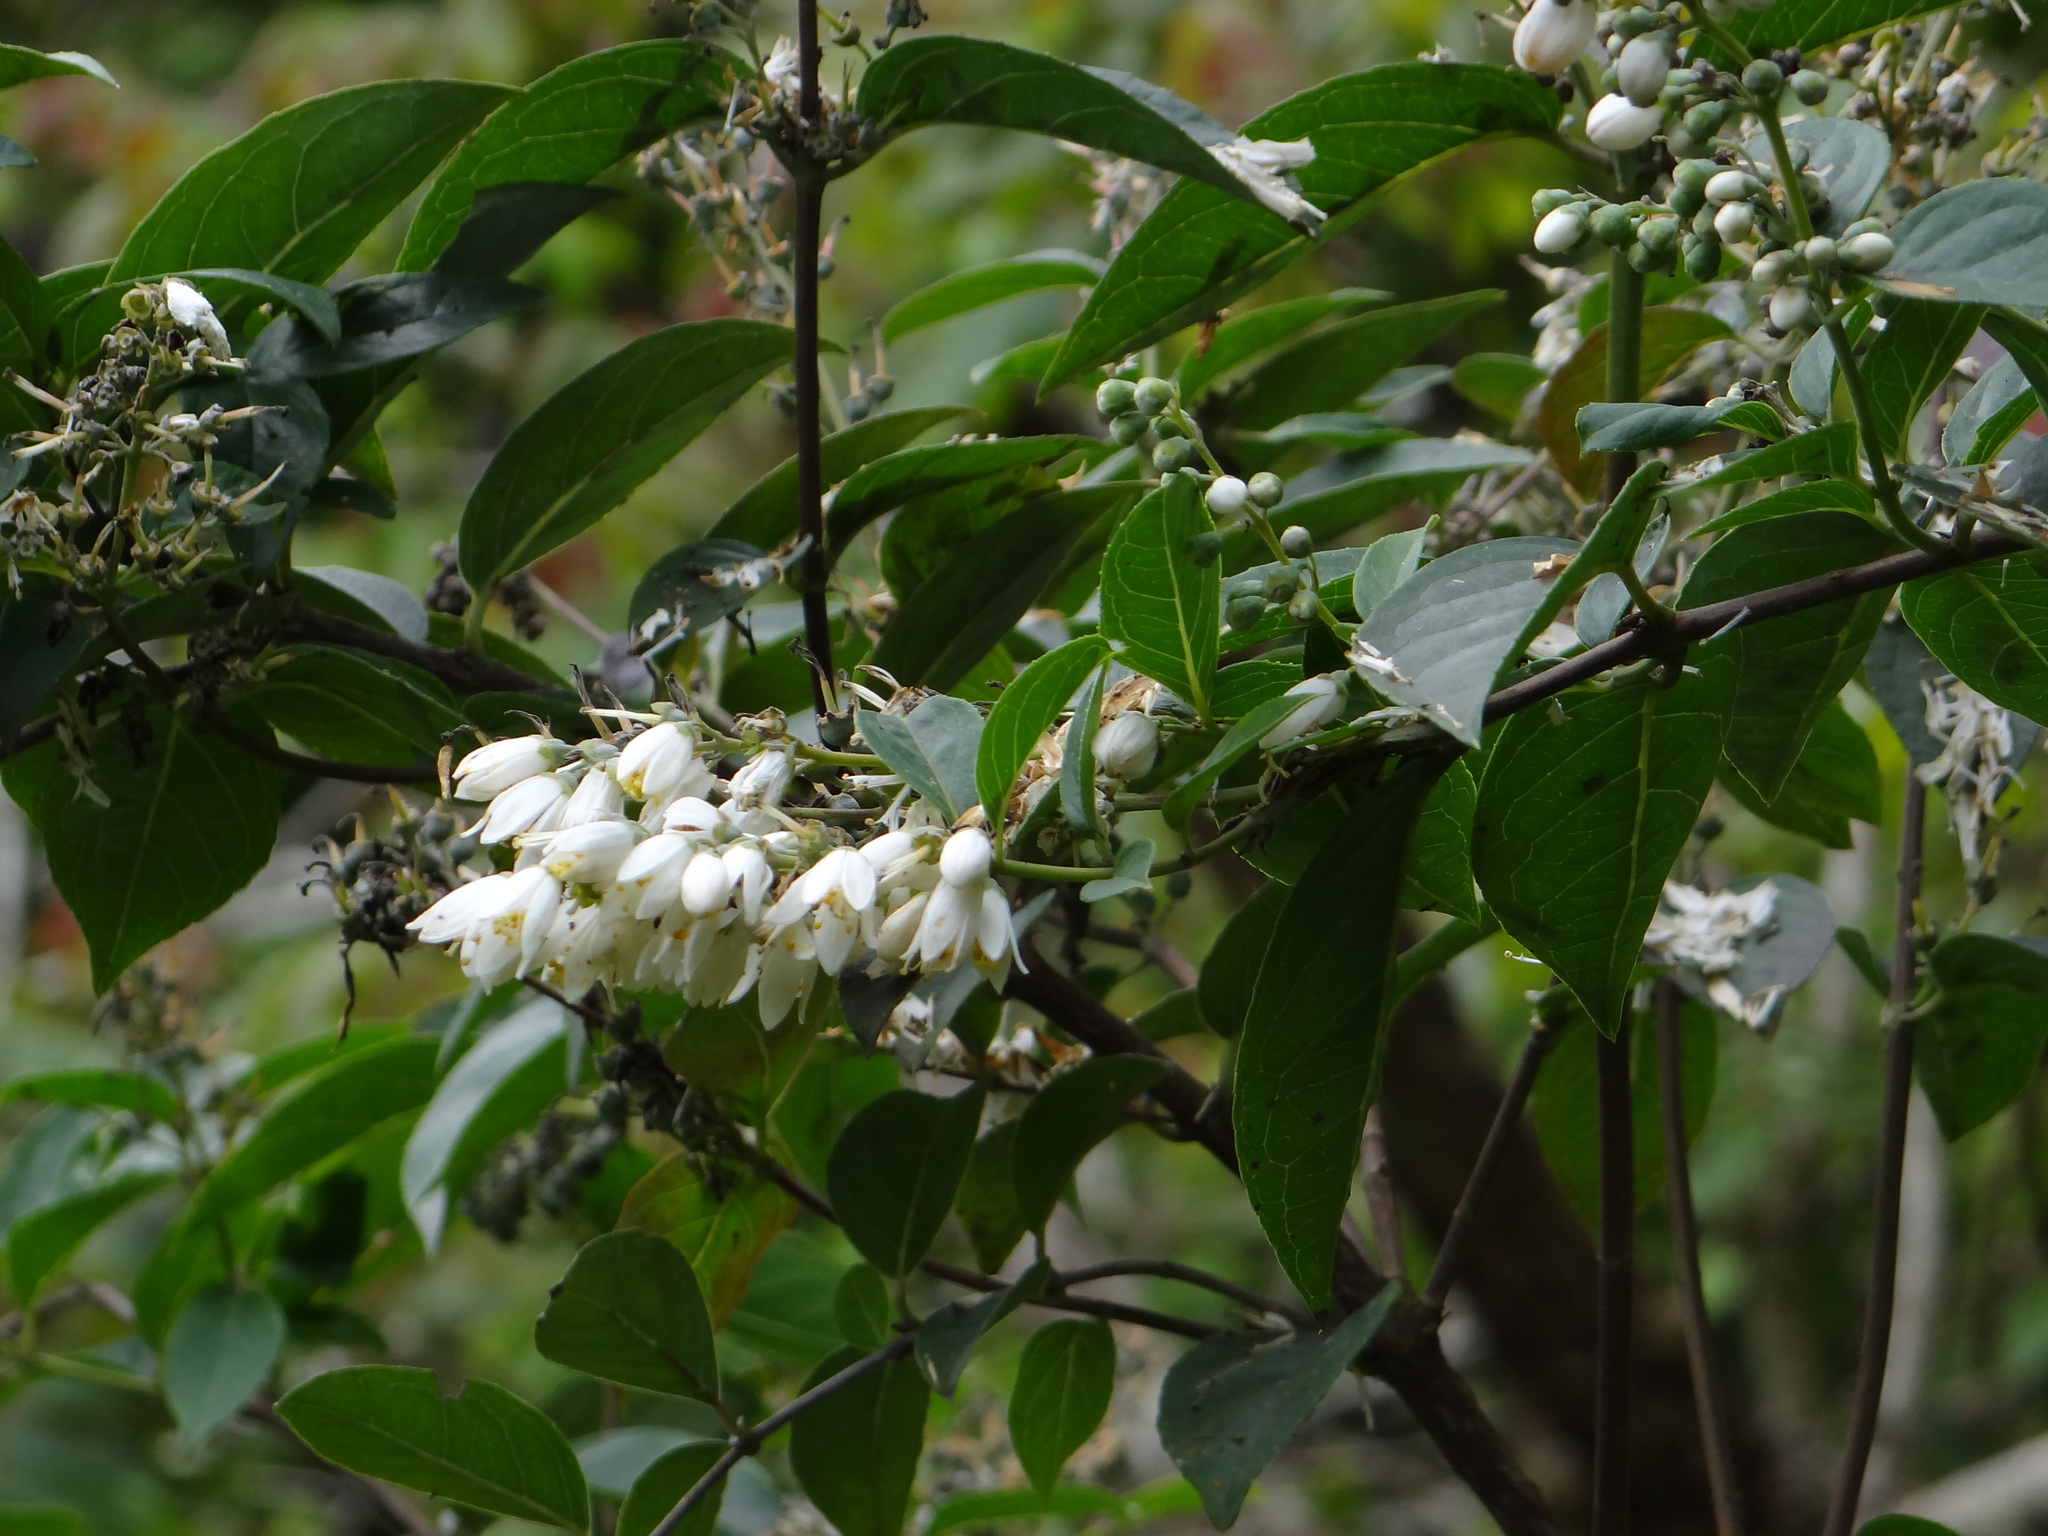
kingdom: Plantae
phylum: Tracheophyta
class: Magnoliopsida
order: Cornales
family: Hydrangeaceae
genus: Deutzia
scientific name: Deutzia pulchra
